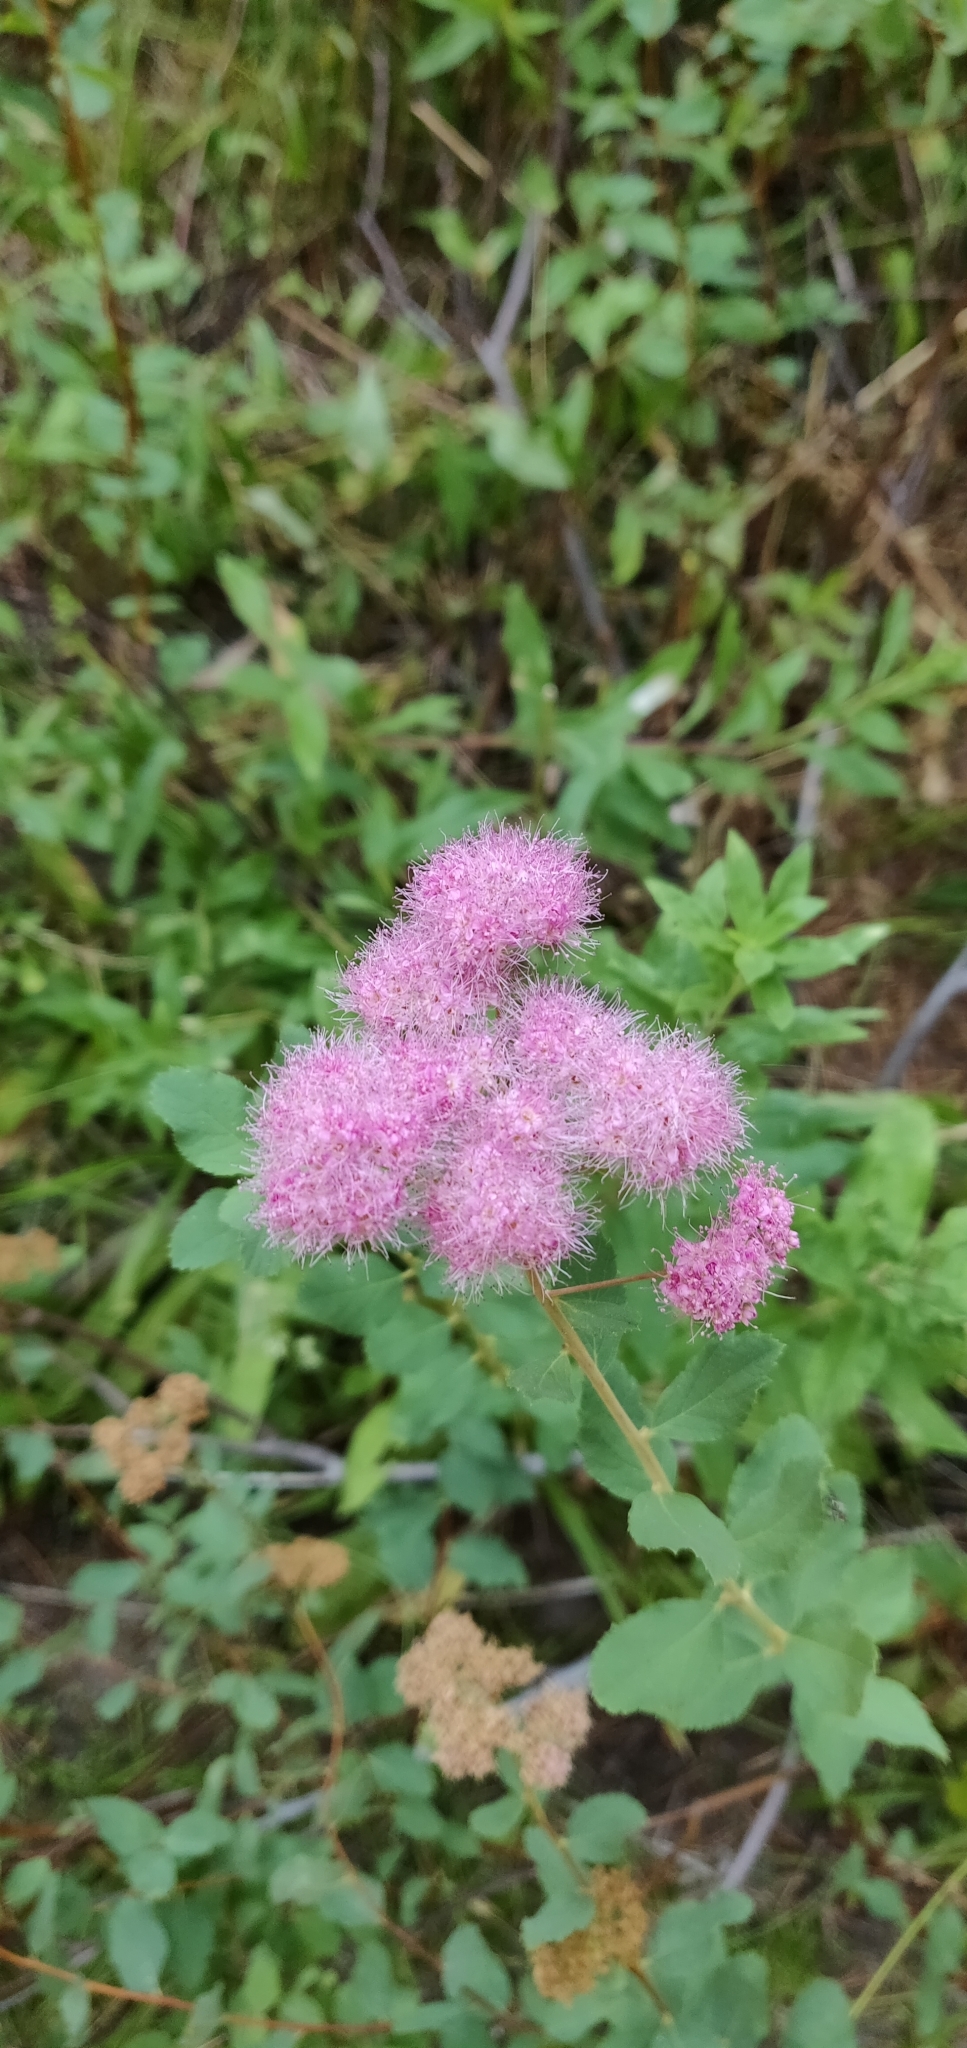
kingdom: Plantae
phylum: Tracheophyta
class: Magnoliopsida
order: Rosales
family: Rosaceae
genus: Spiraea
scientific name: Spiraea splendens
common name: Subalpine meadowsweet
